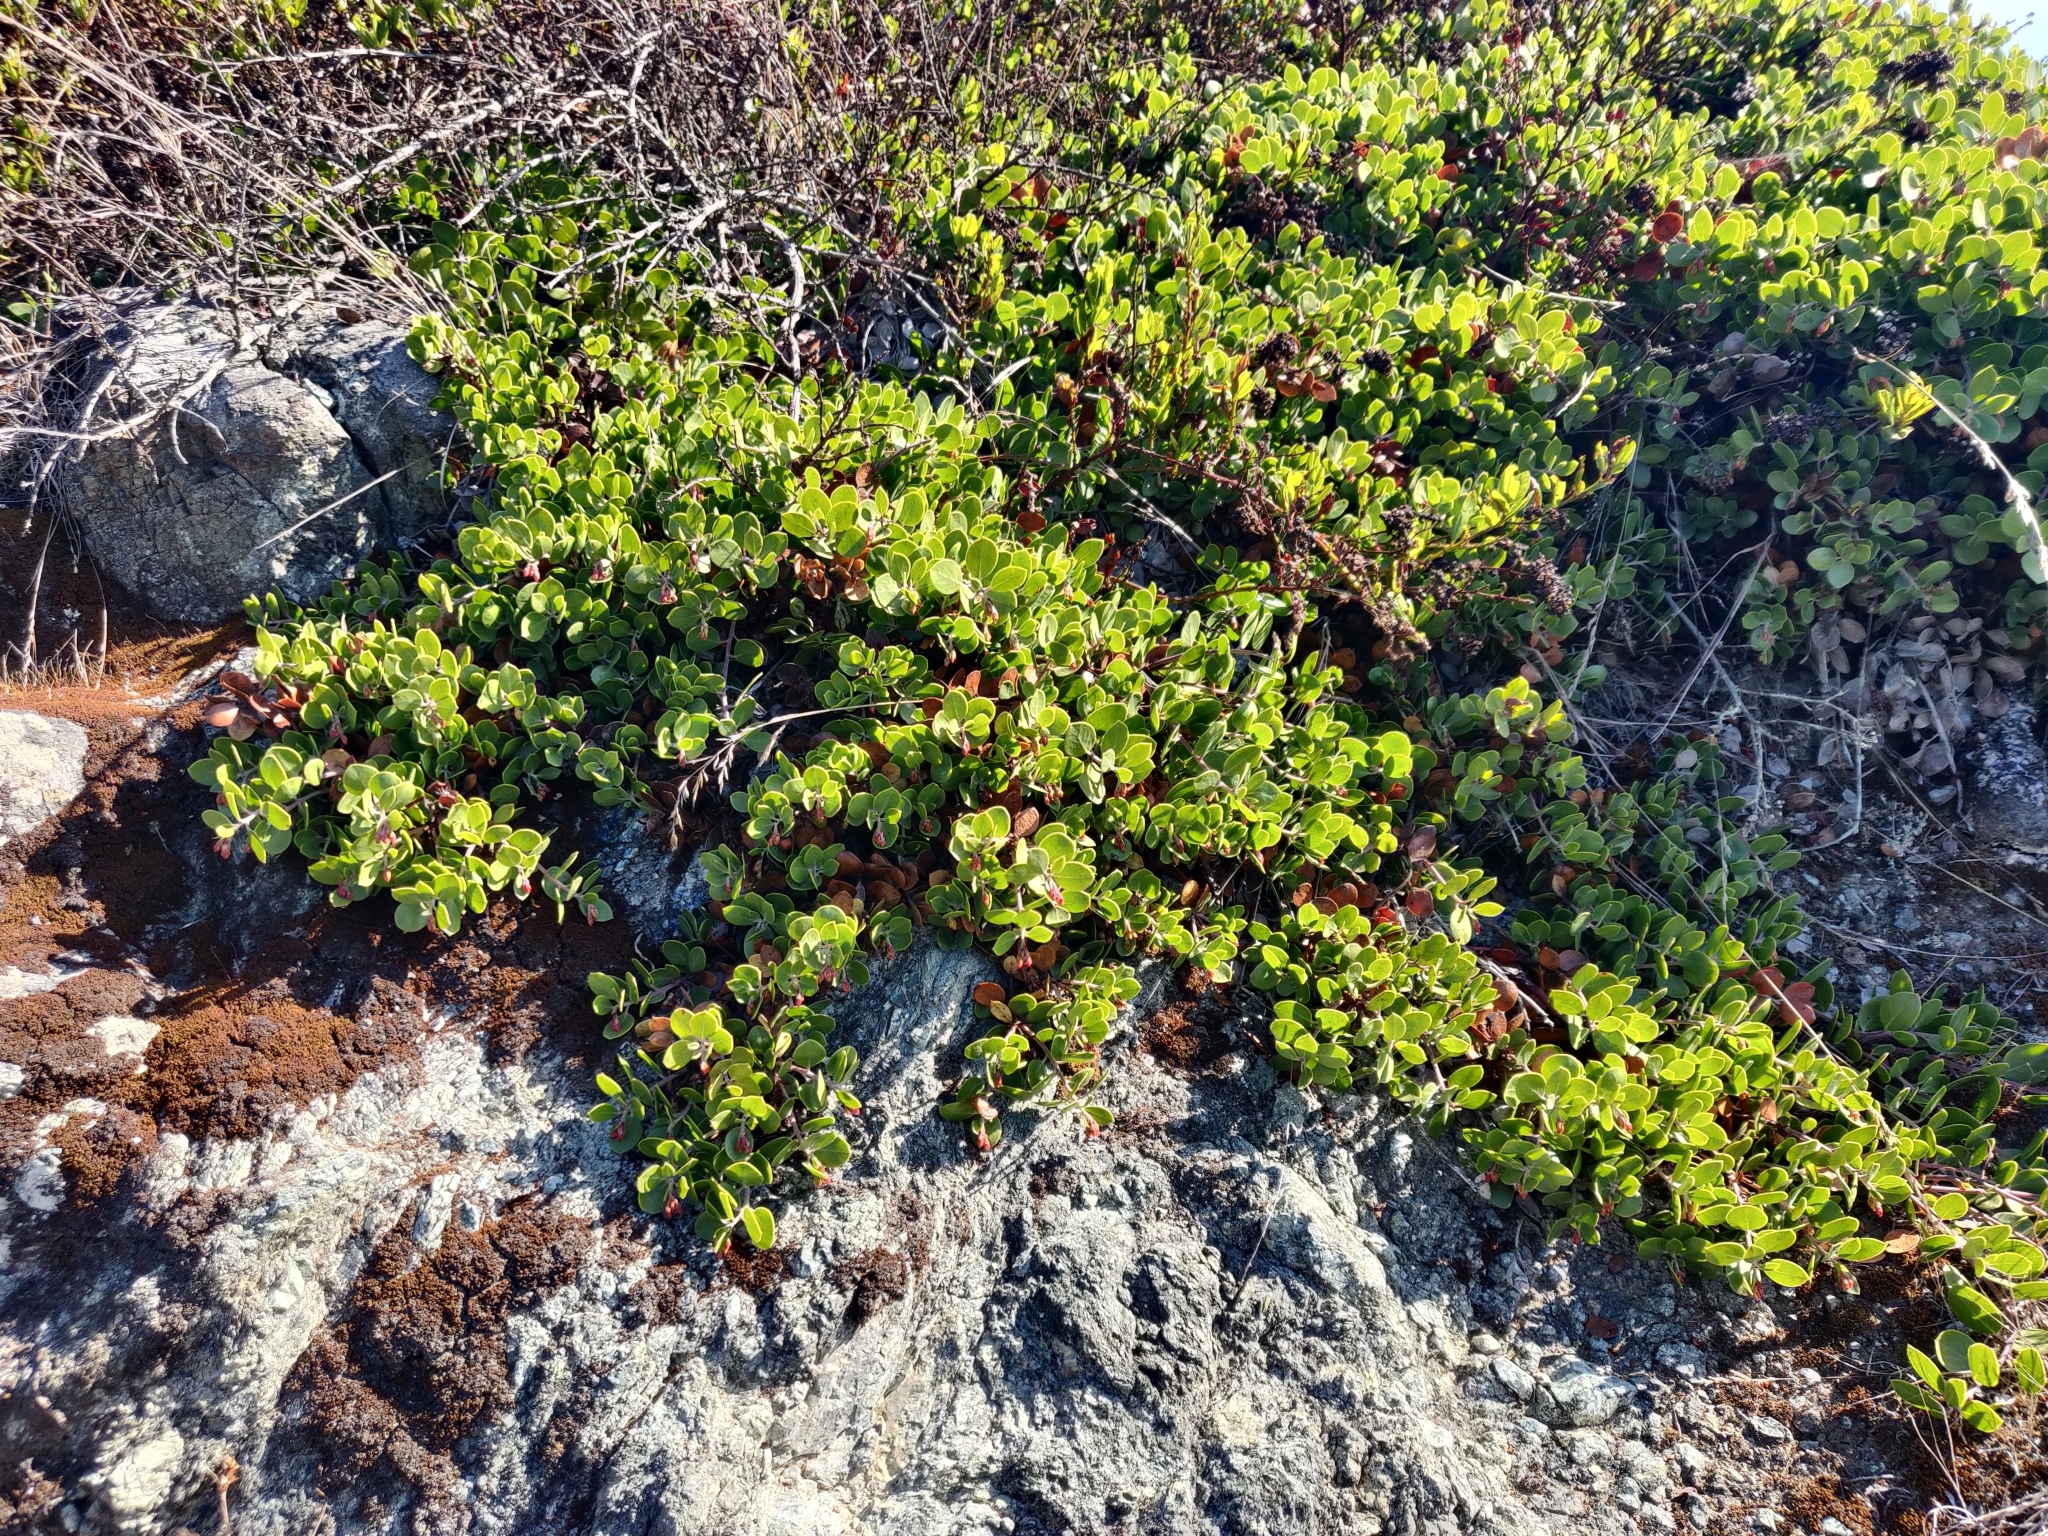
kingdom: Plantae
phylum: Tracheophyta
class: Magnoliopsida
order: Ericales
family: Ericaceae
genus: Arctostaphylos
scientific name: Arctostaphylos mewukka
